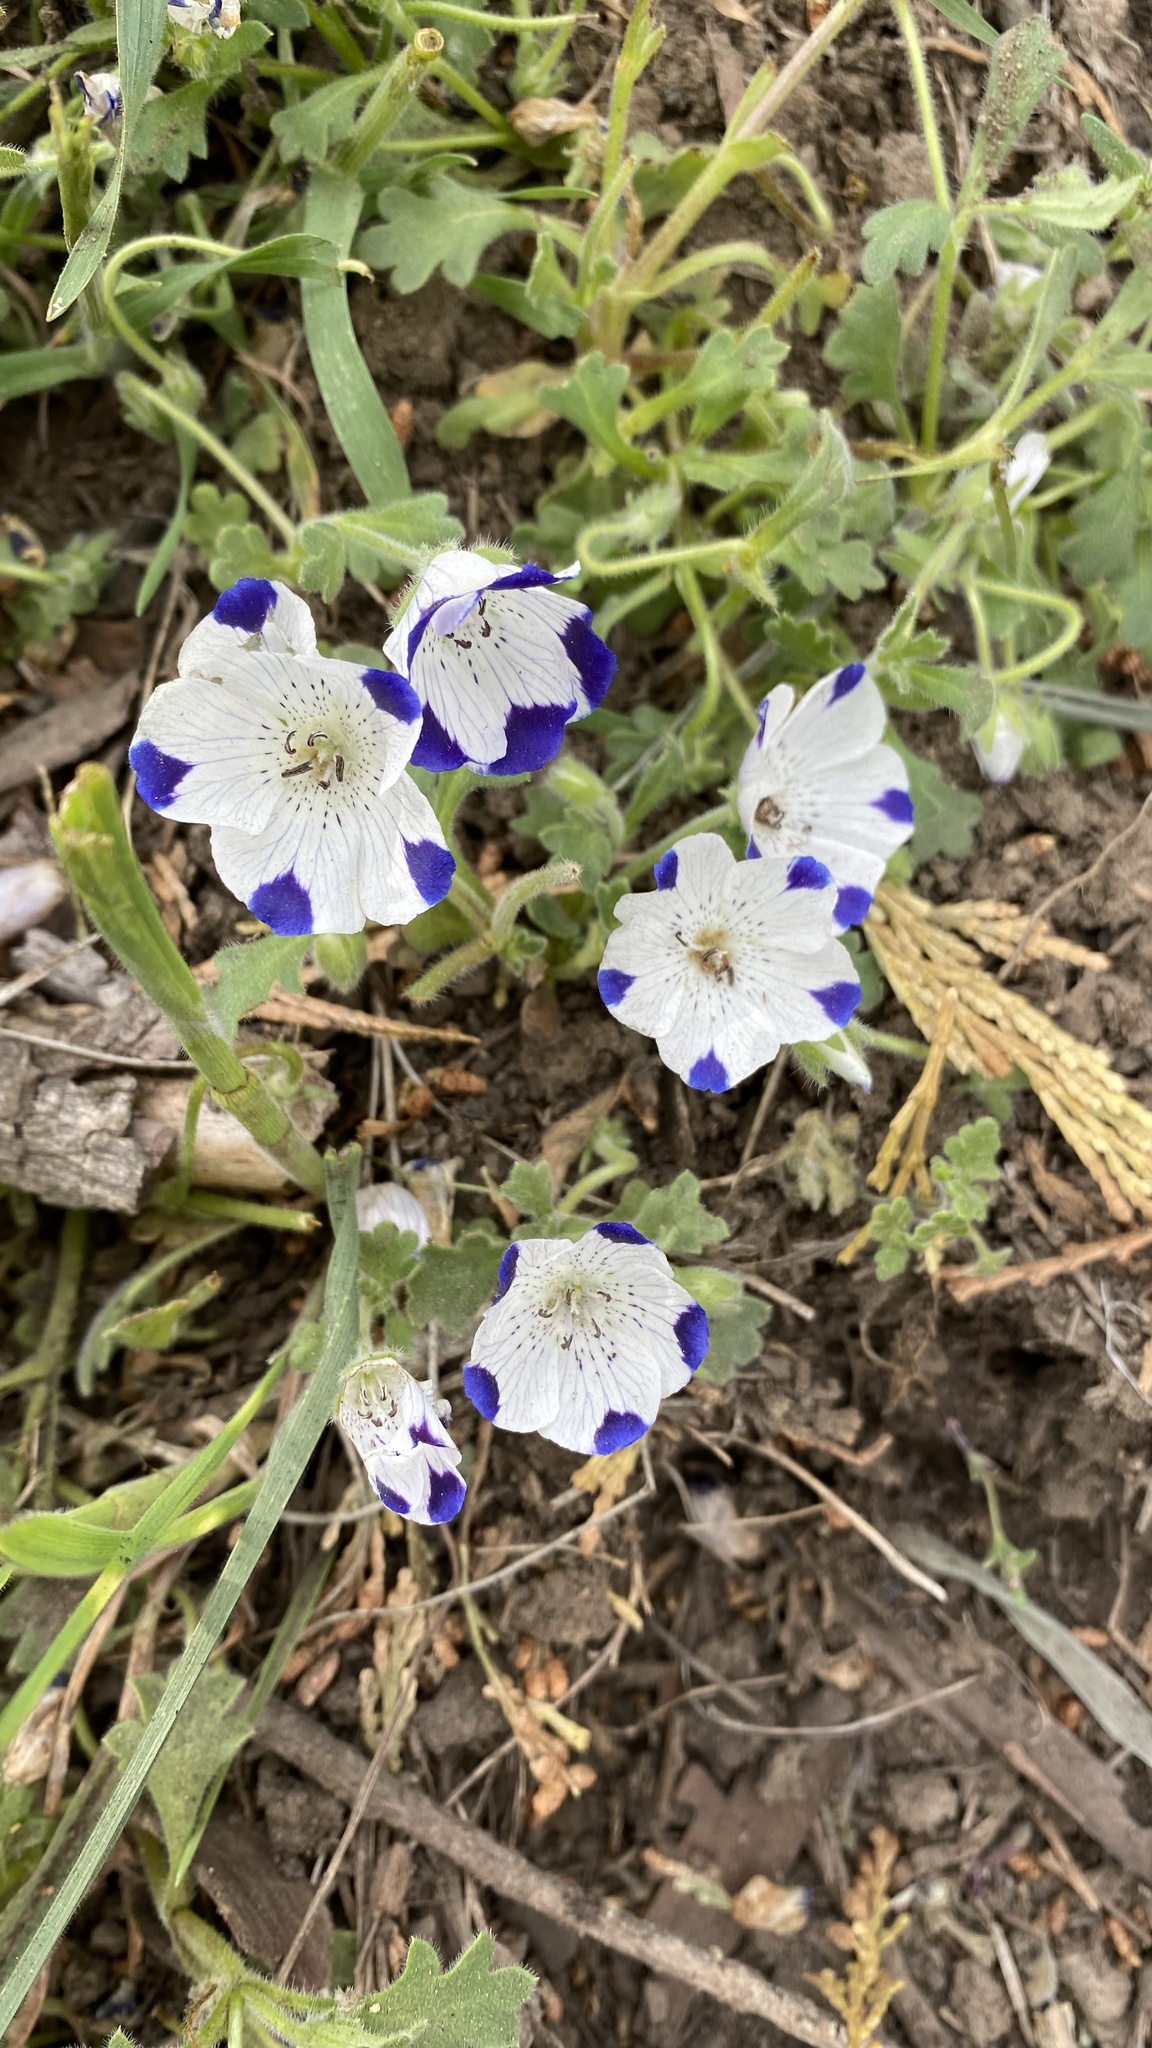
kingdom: Plantae
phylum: Tracheophyta
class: Magnoliopsida
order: Boraginales
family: Hydrophyllaceae
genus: Nemophila
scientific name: Nemophila maculata
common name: Fivespot
